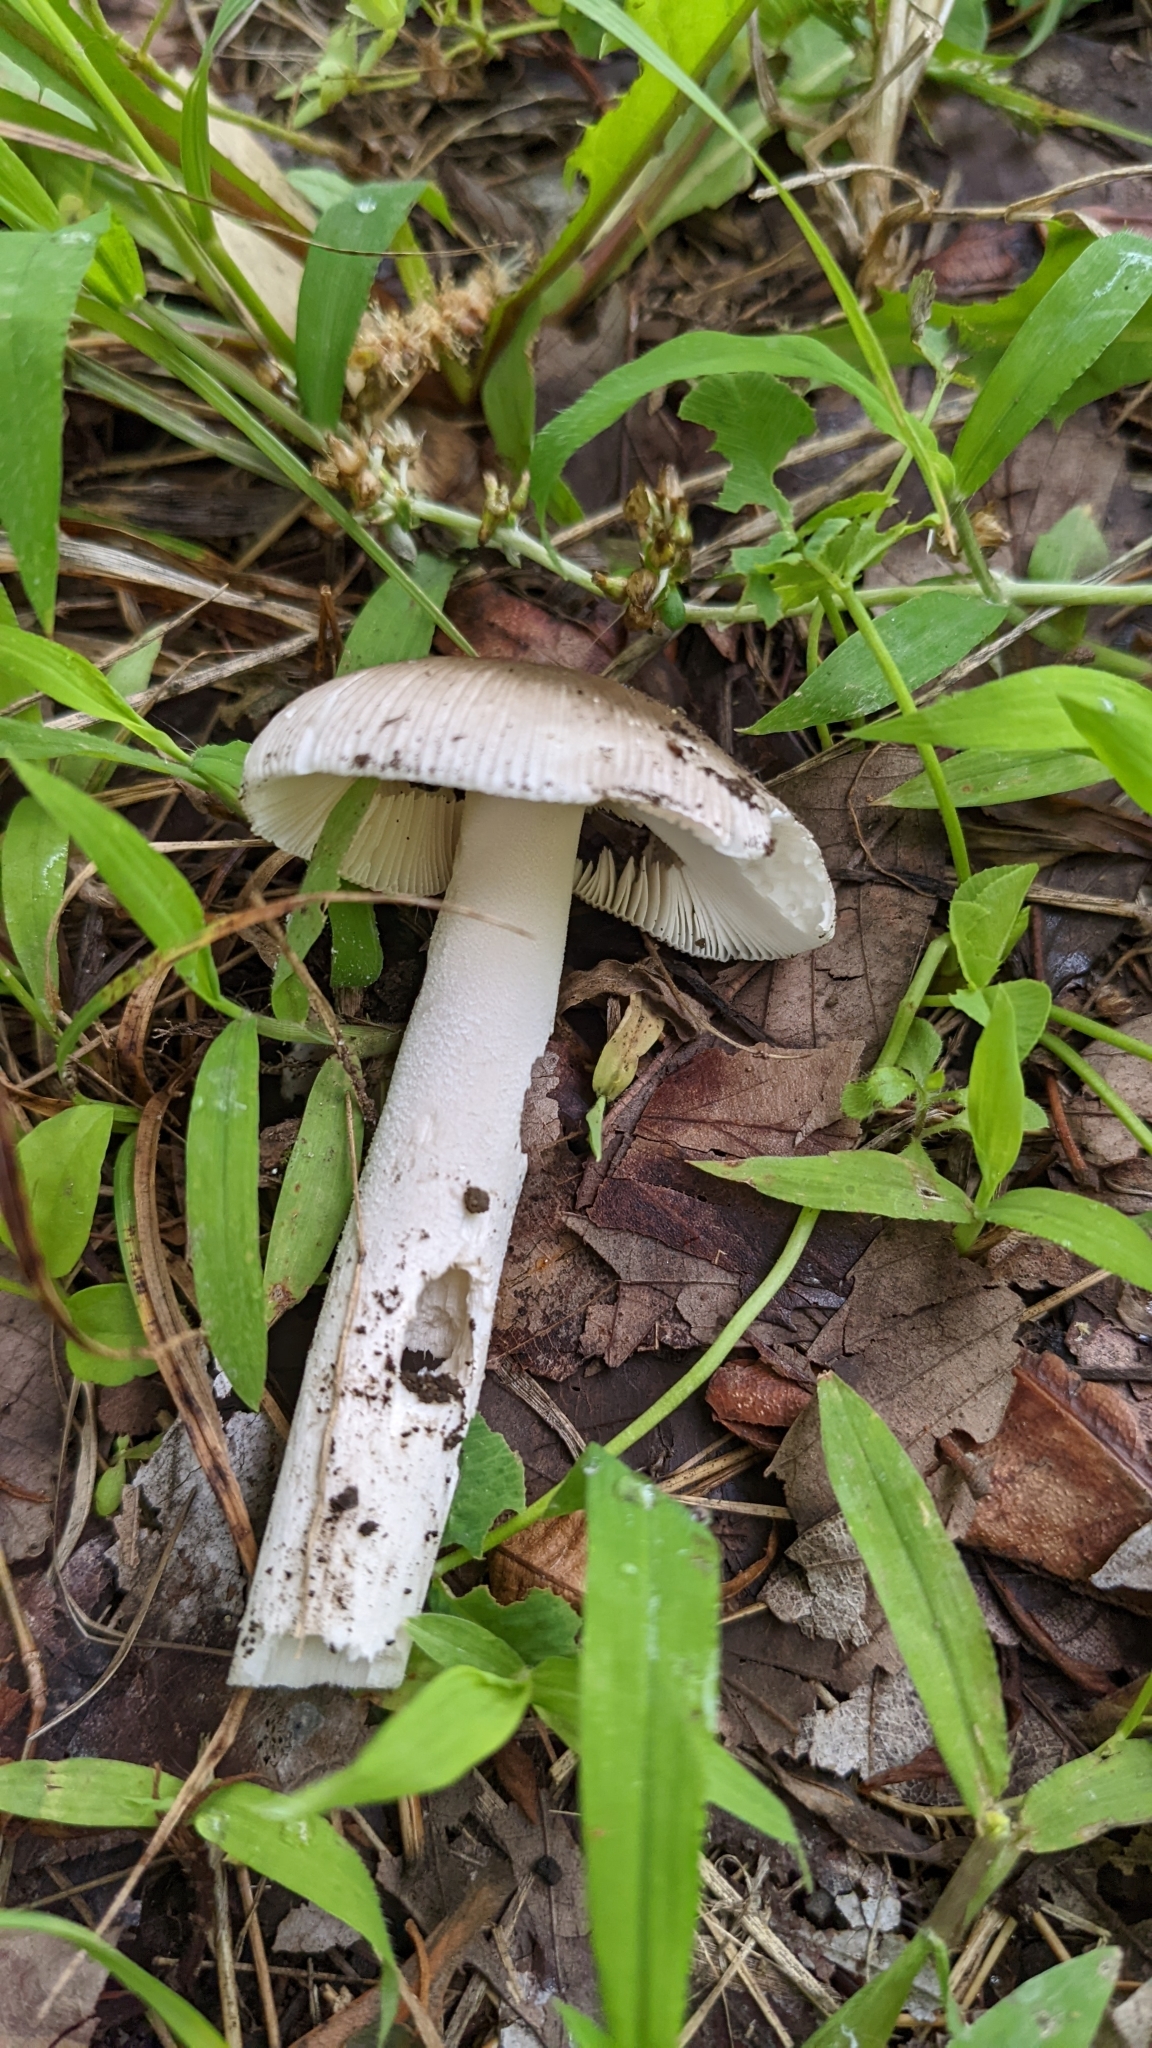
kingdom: Fungi
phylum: Basidiomycota
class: Agaricomycetes
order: Agaricales
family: Amanitaceae
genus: Amanita
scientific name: Amanita vaginata
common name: Grisette
